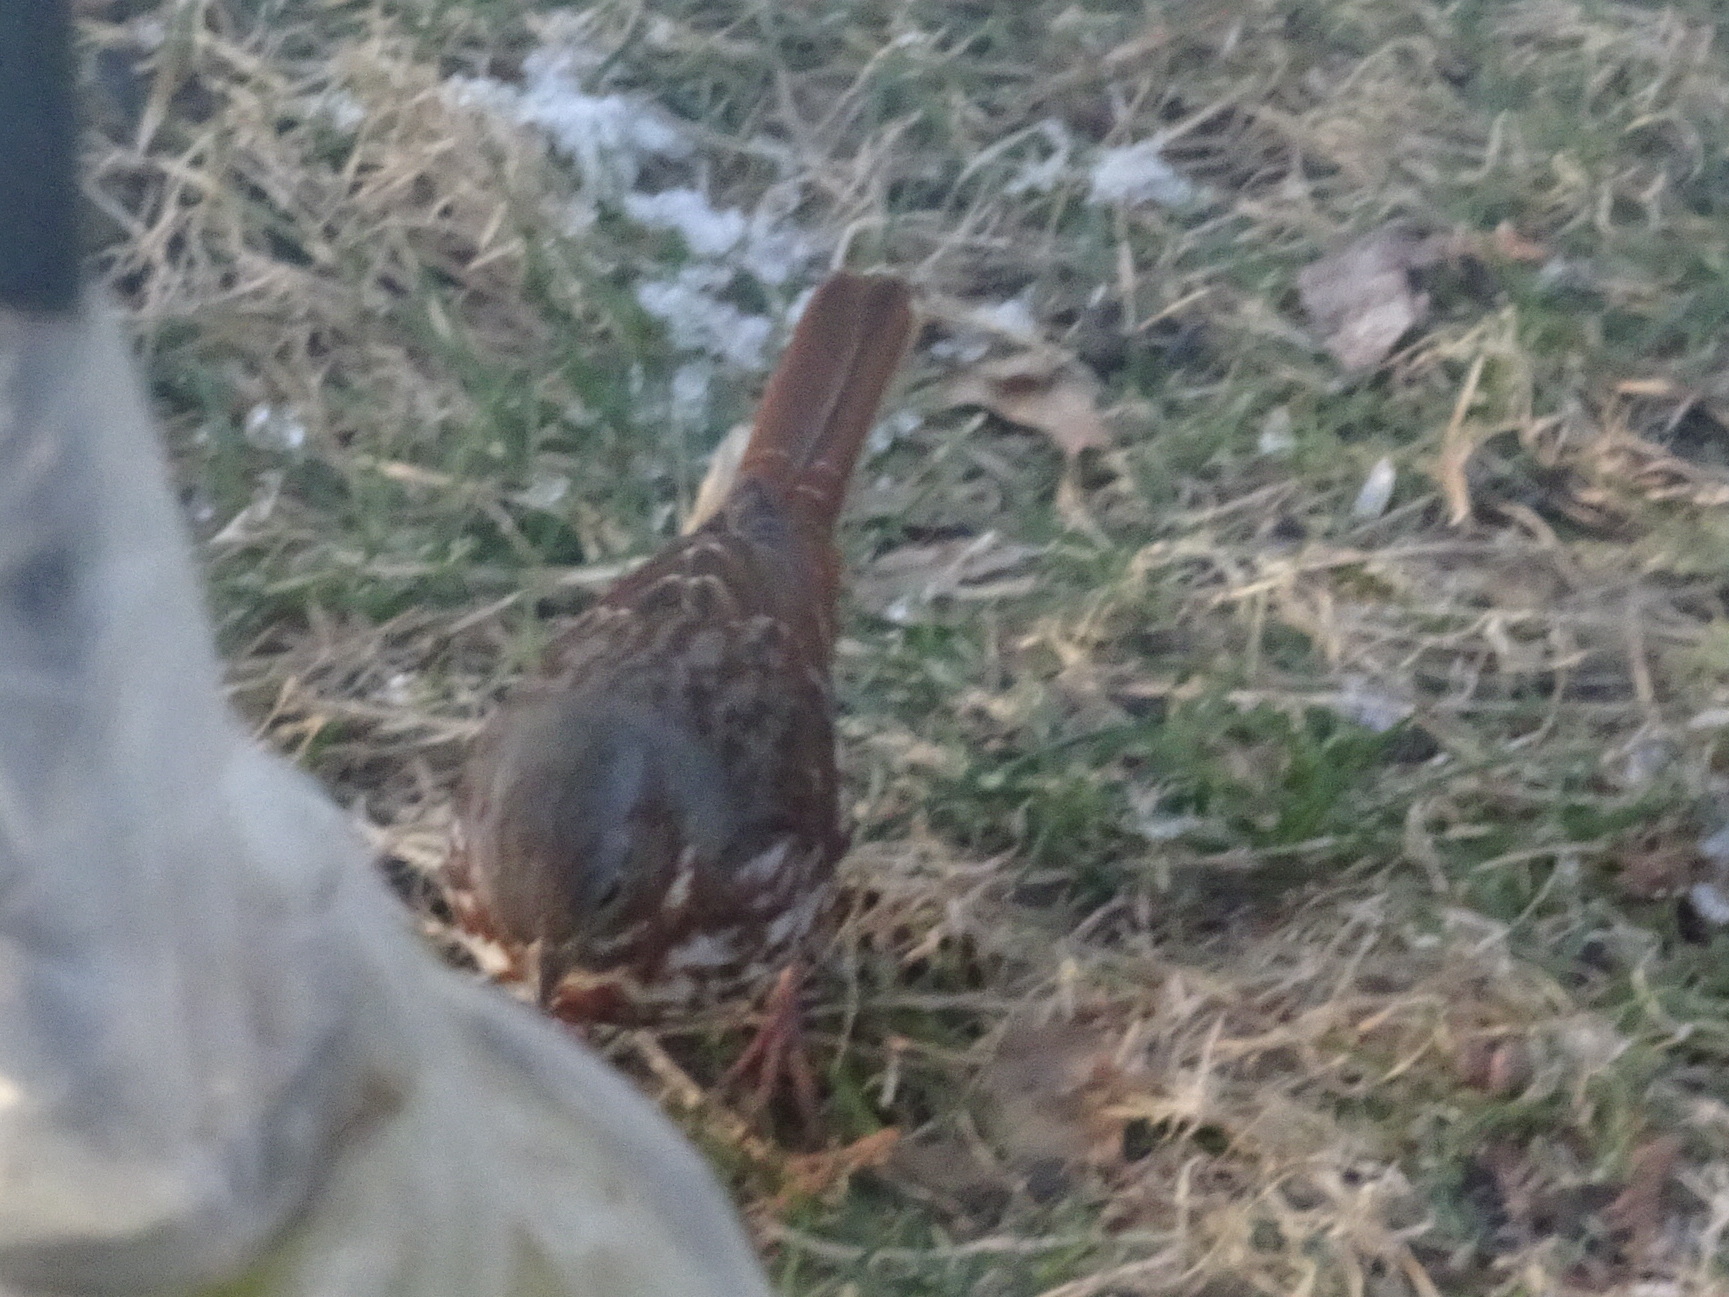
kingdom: Animalia
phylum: Chordata
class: Aves
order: Passeriformes
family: Passerellidae
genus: Passerella
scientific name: Passerella iliaca
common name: Fox sparrow
